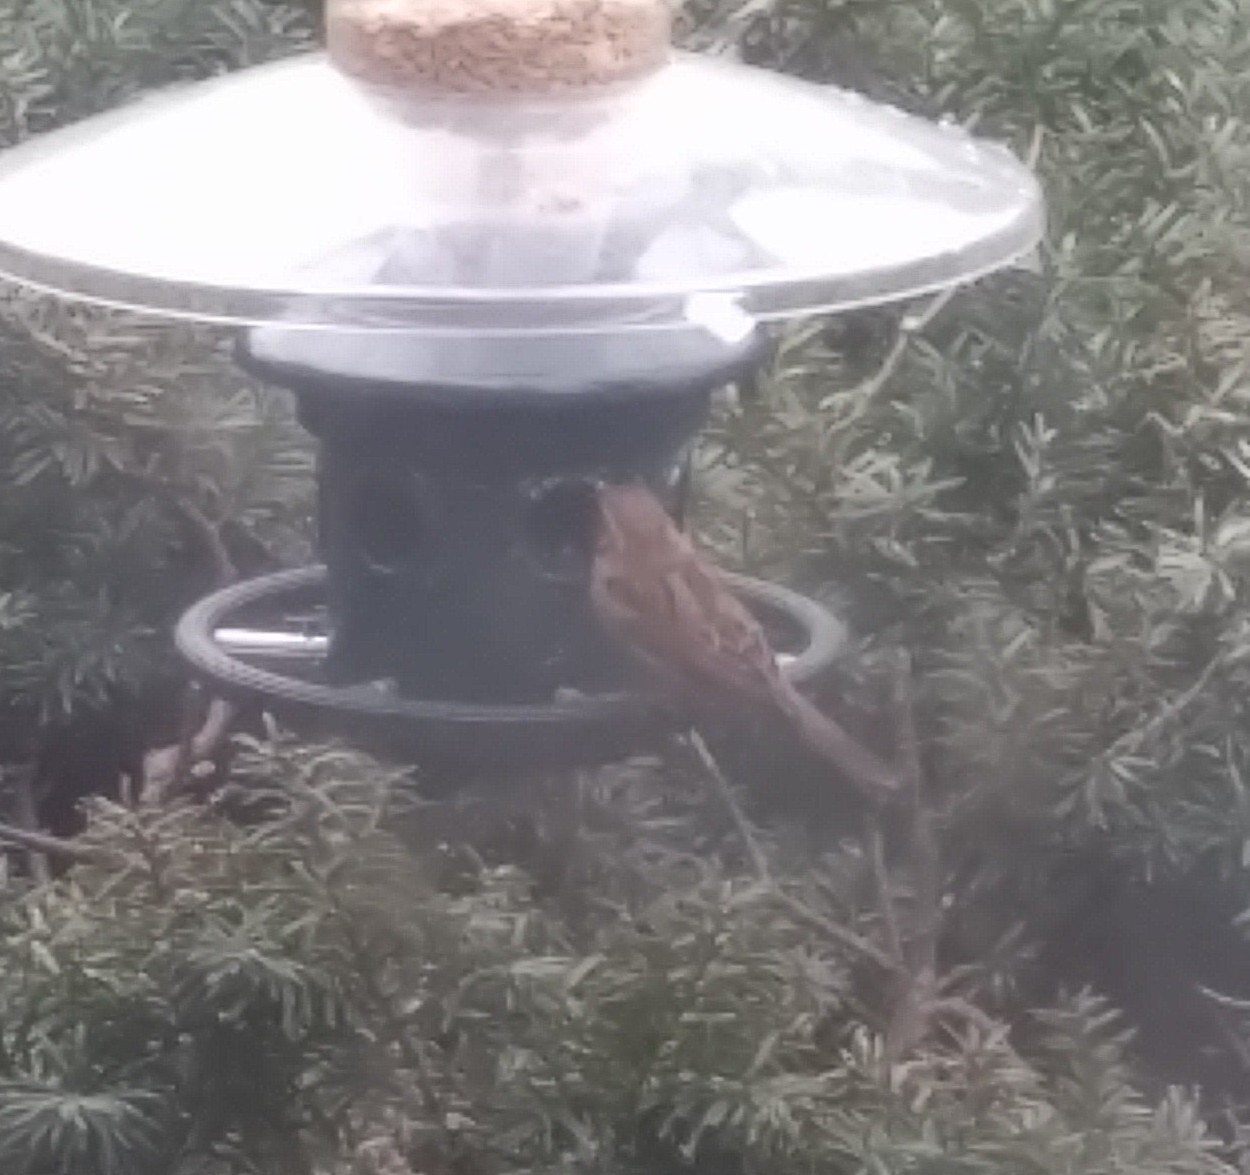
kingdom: Animalia
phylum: Chordata
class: Aves
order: Passeriformes
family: Passeridae
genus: Passer
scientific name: Passer domesticus
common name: House sparrow
